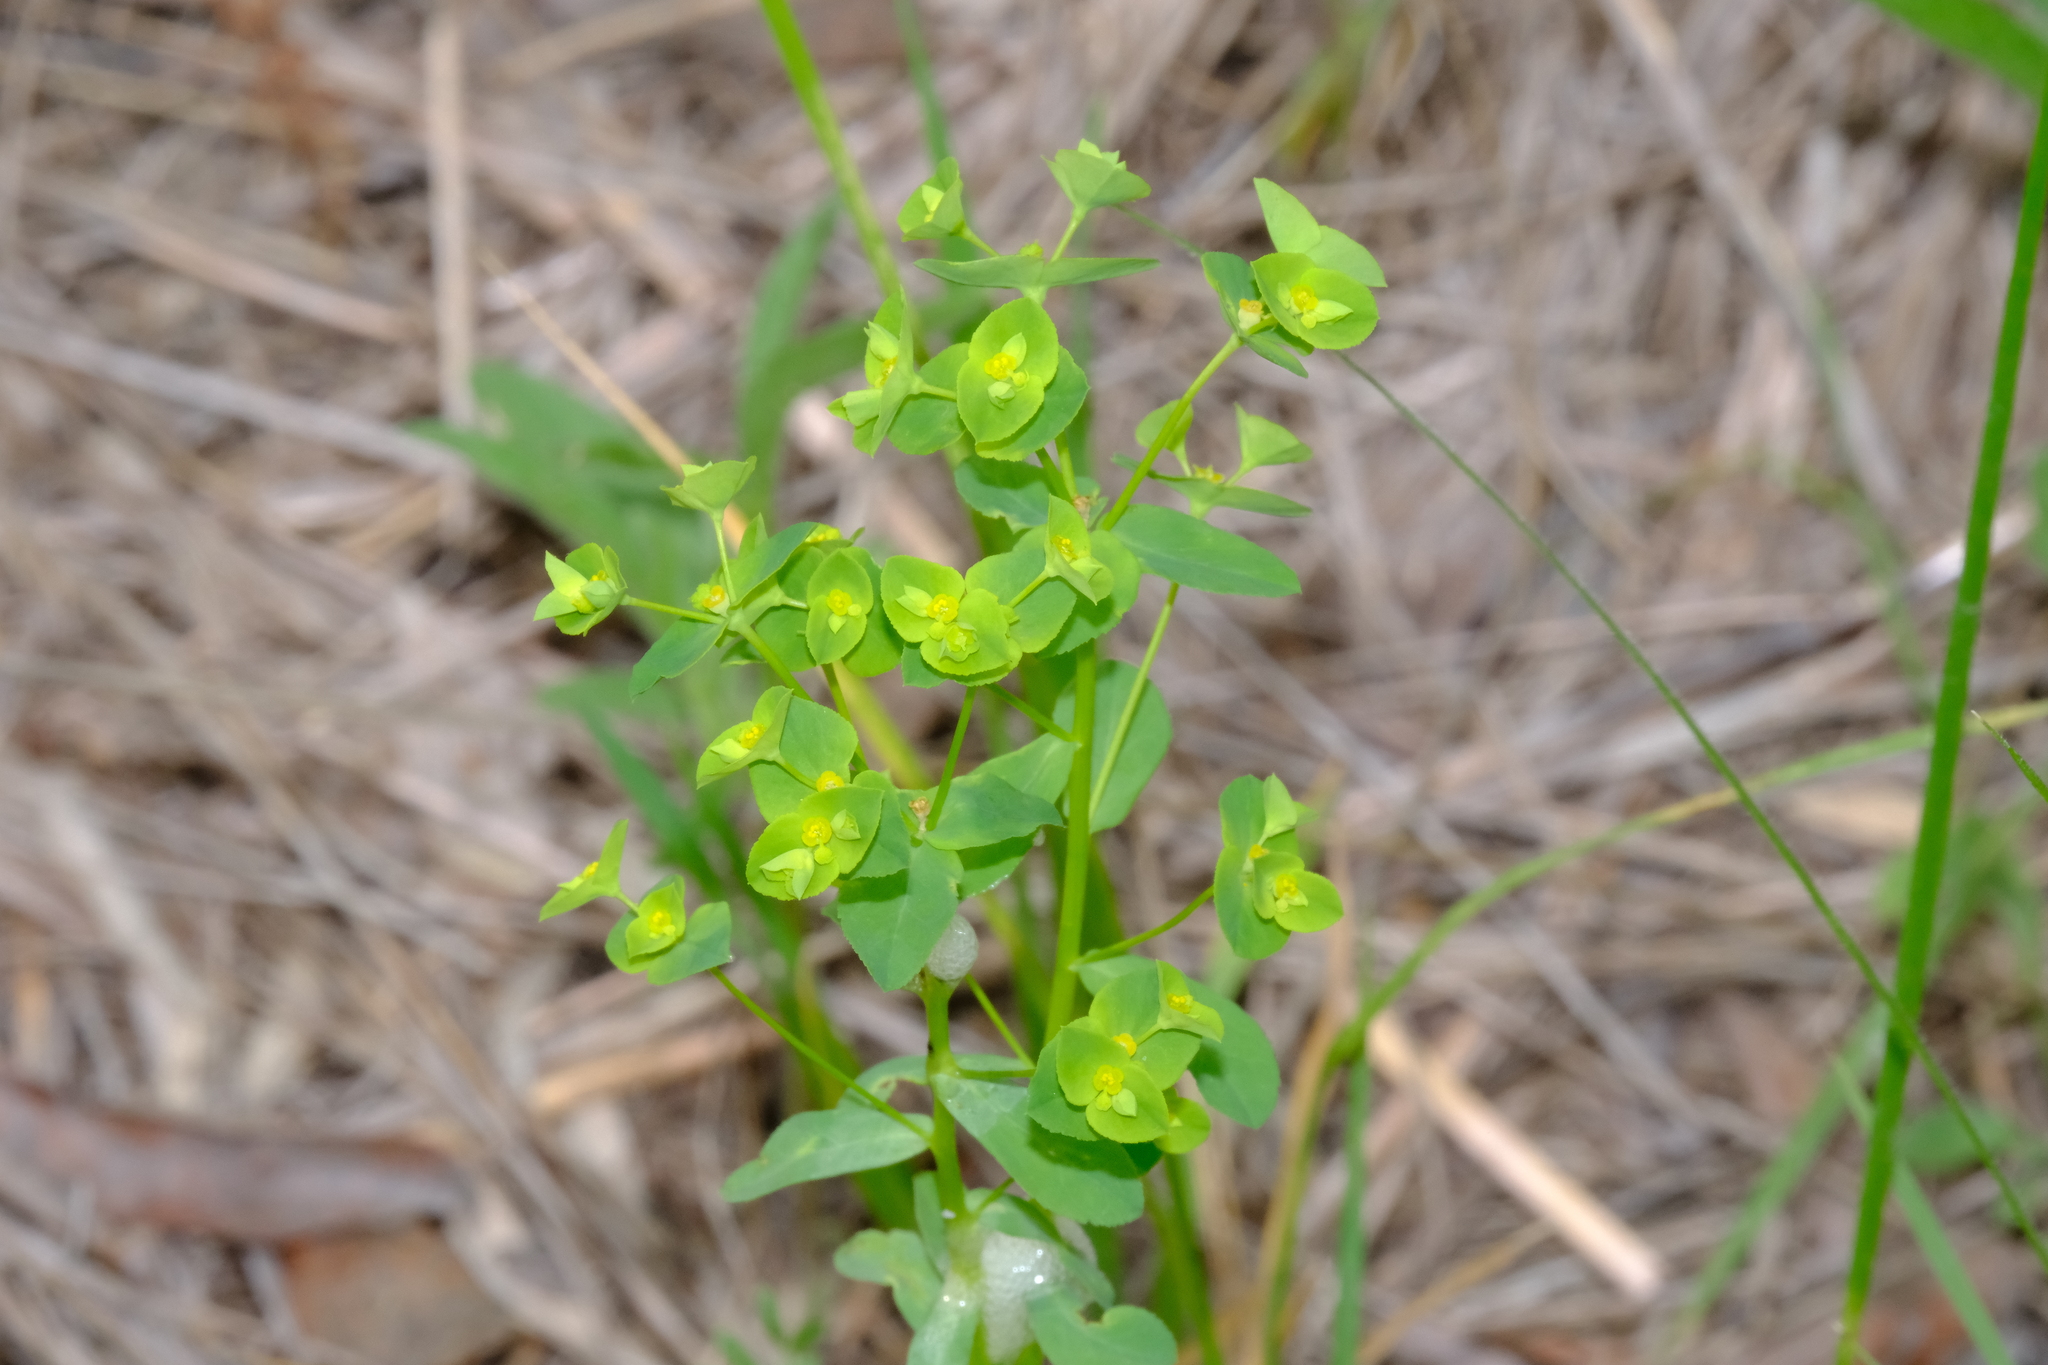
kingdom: Plantae
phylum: Tracheophyta
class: Magnoliopsida
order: Malpighiales
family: Euphorbiaceae
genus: Euphorbia
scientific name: Euphorbia spathulata
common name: Blunt spurge
